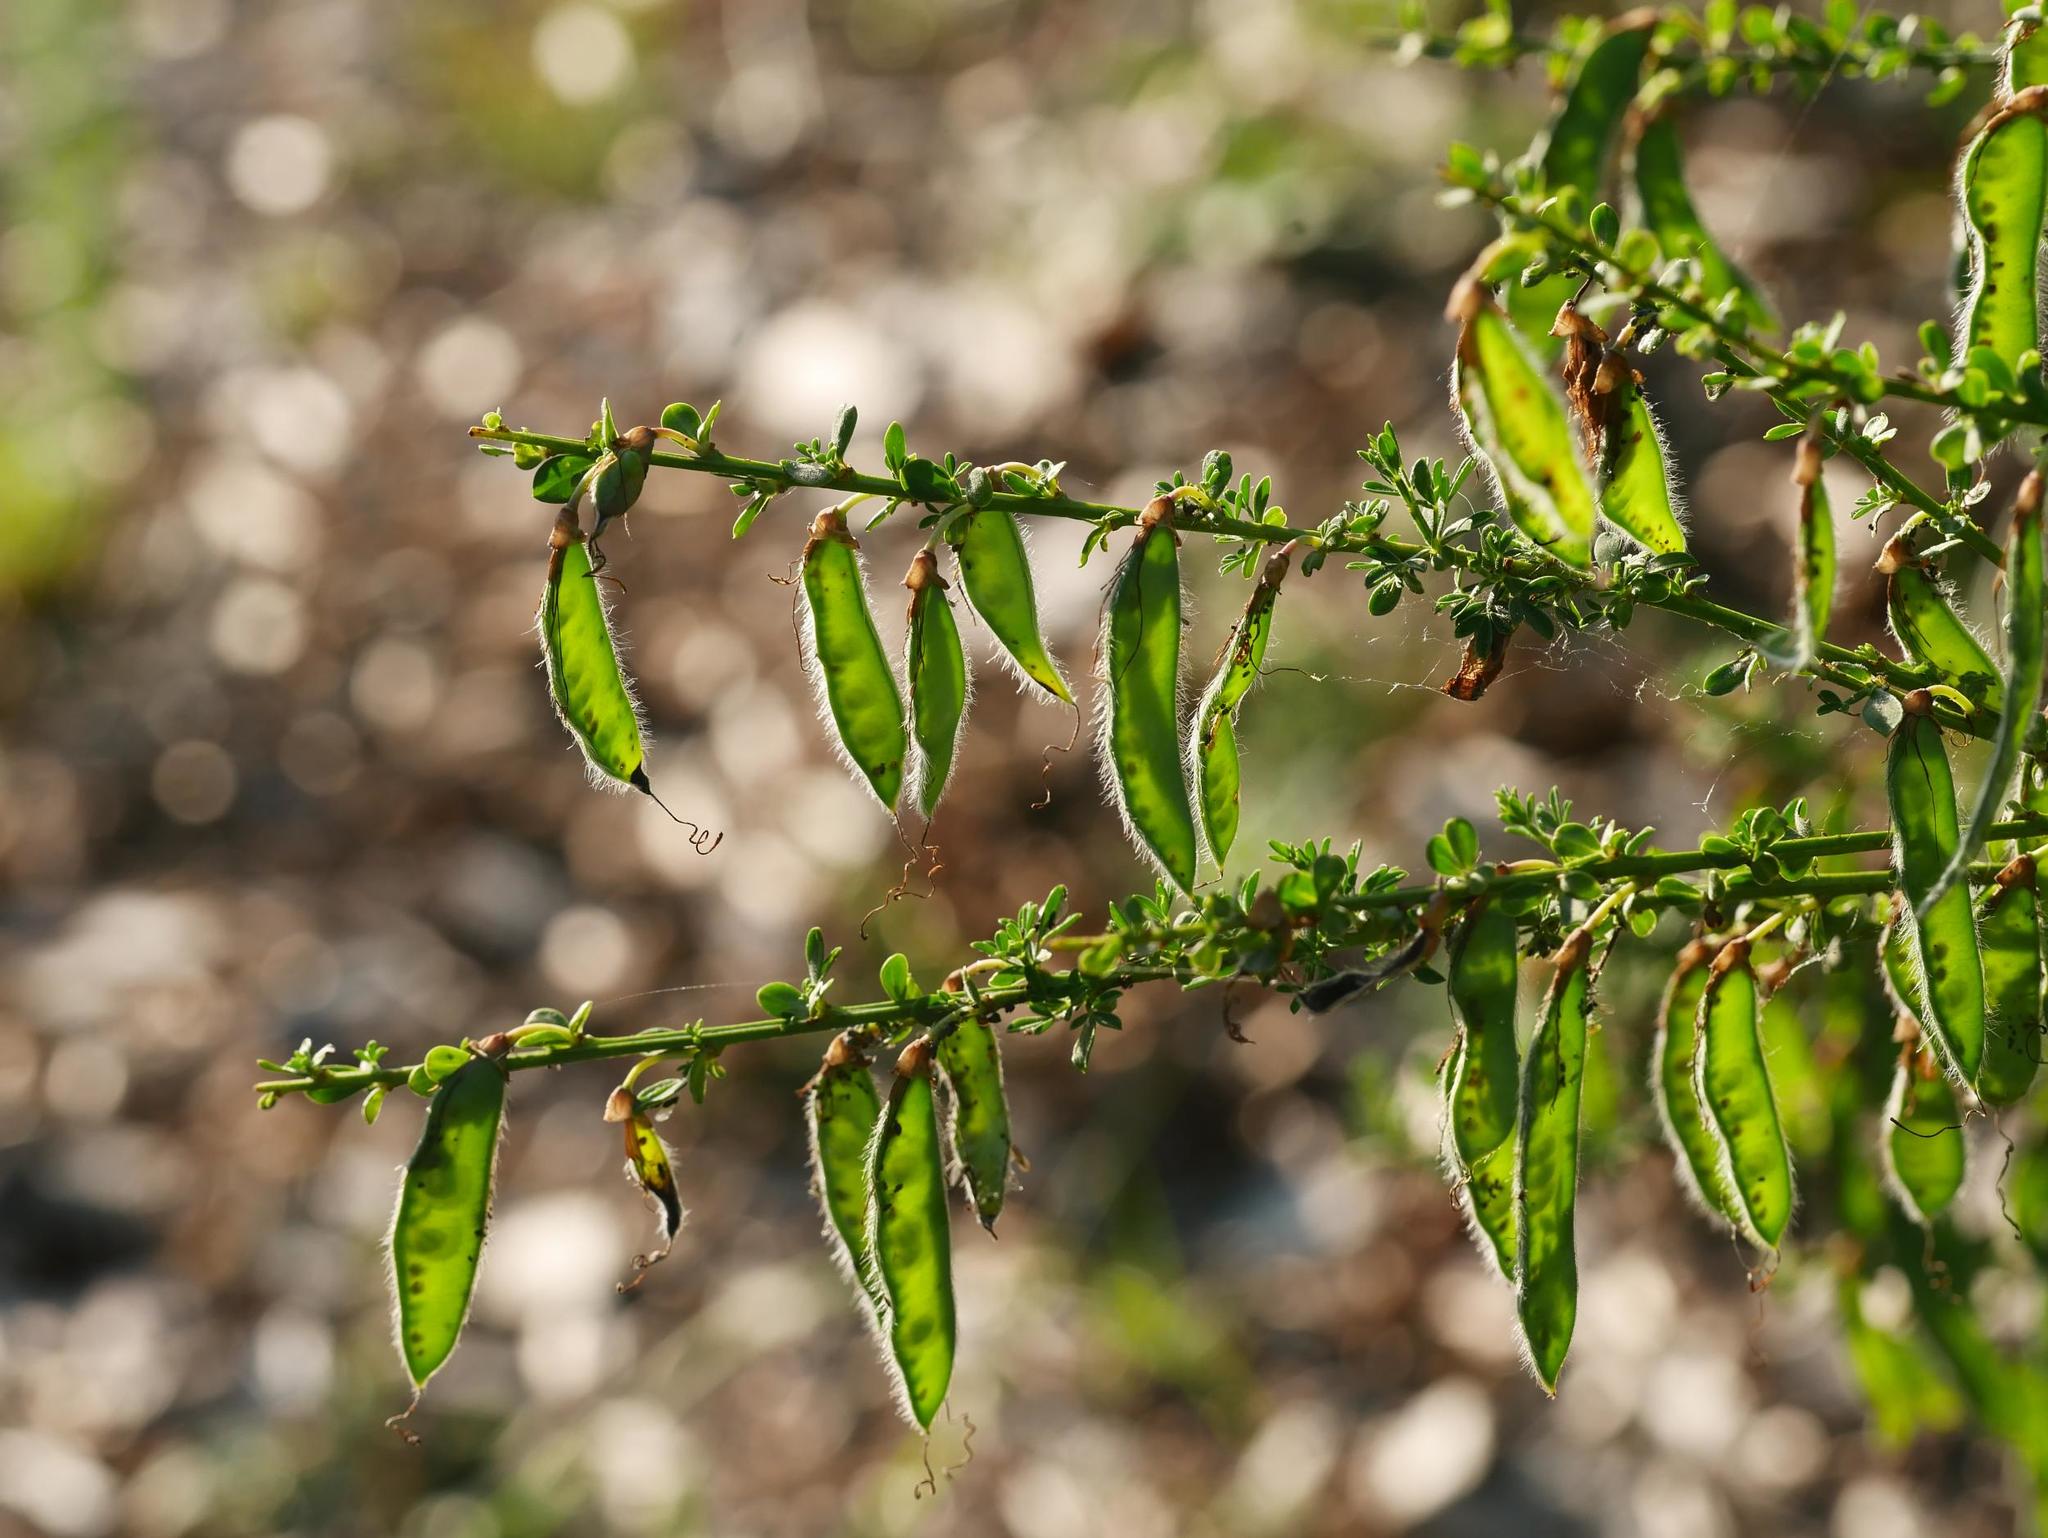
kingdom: Plantae
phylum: Tracheophyta
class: Magnoliopsida
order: Fabales
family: Fabaceae
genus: Cytisus
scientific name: Cytisus scoparius
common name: Scotch broom
